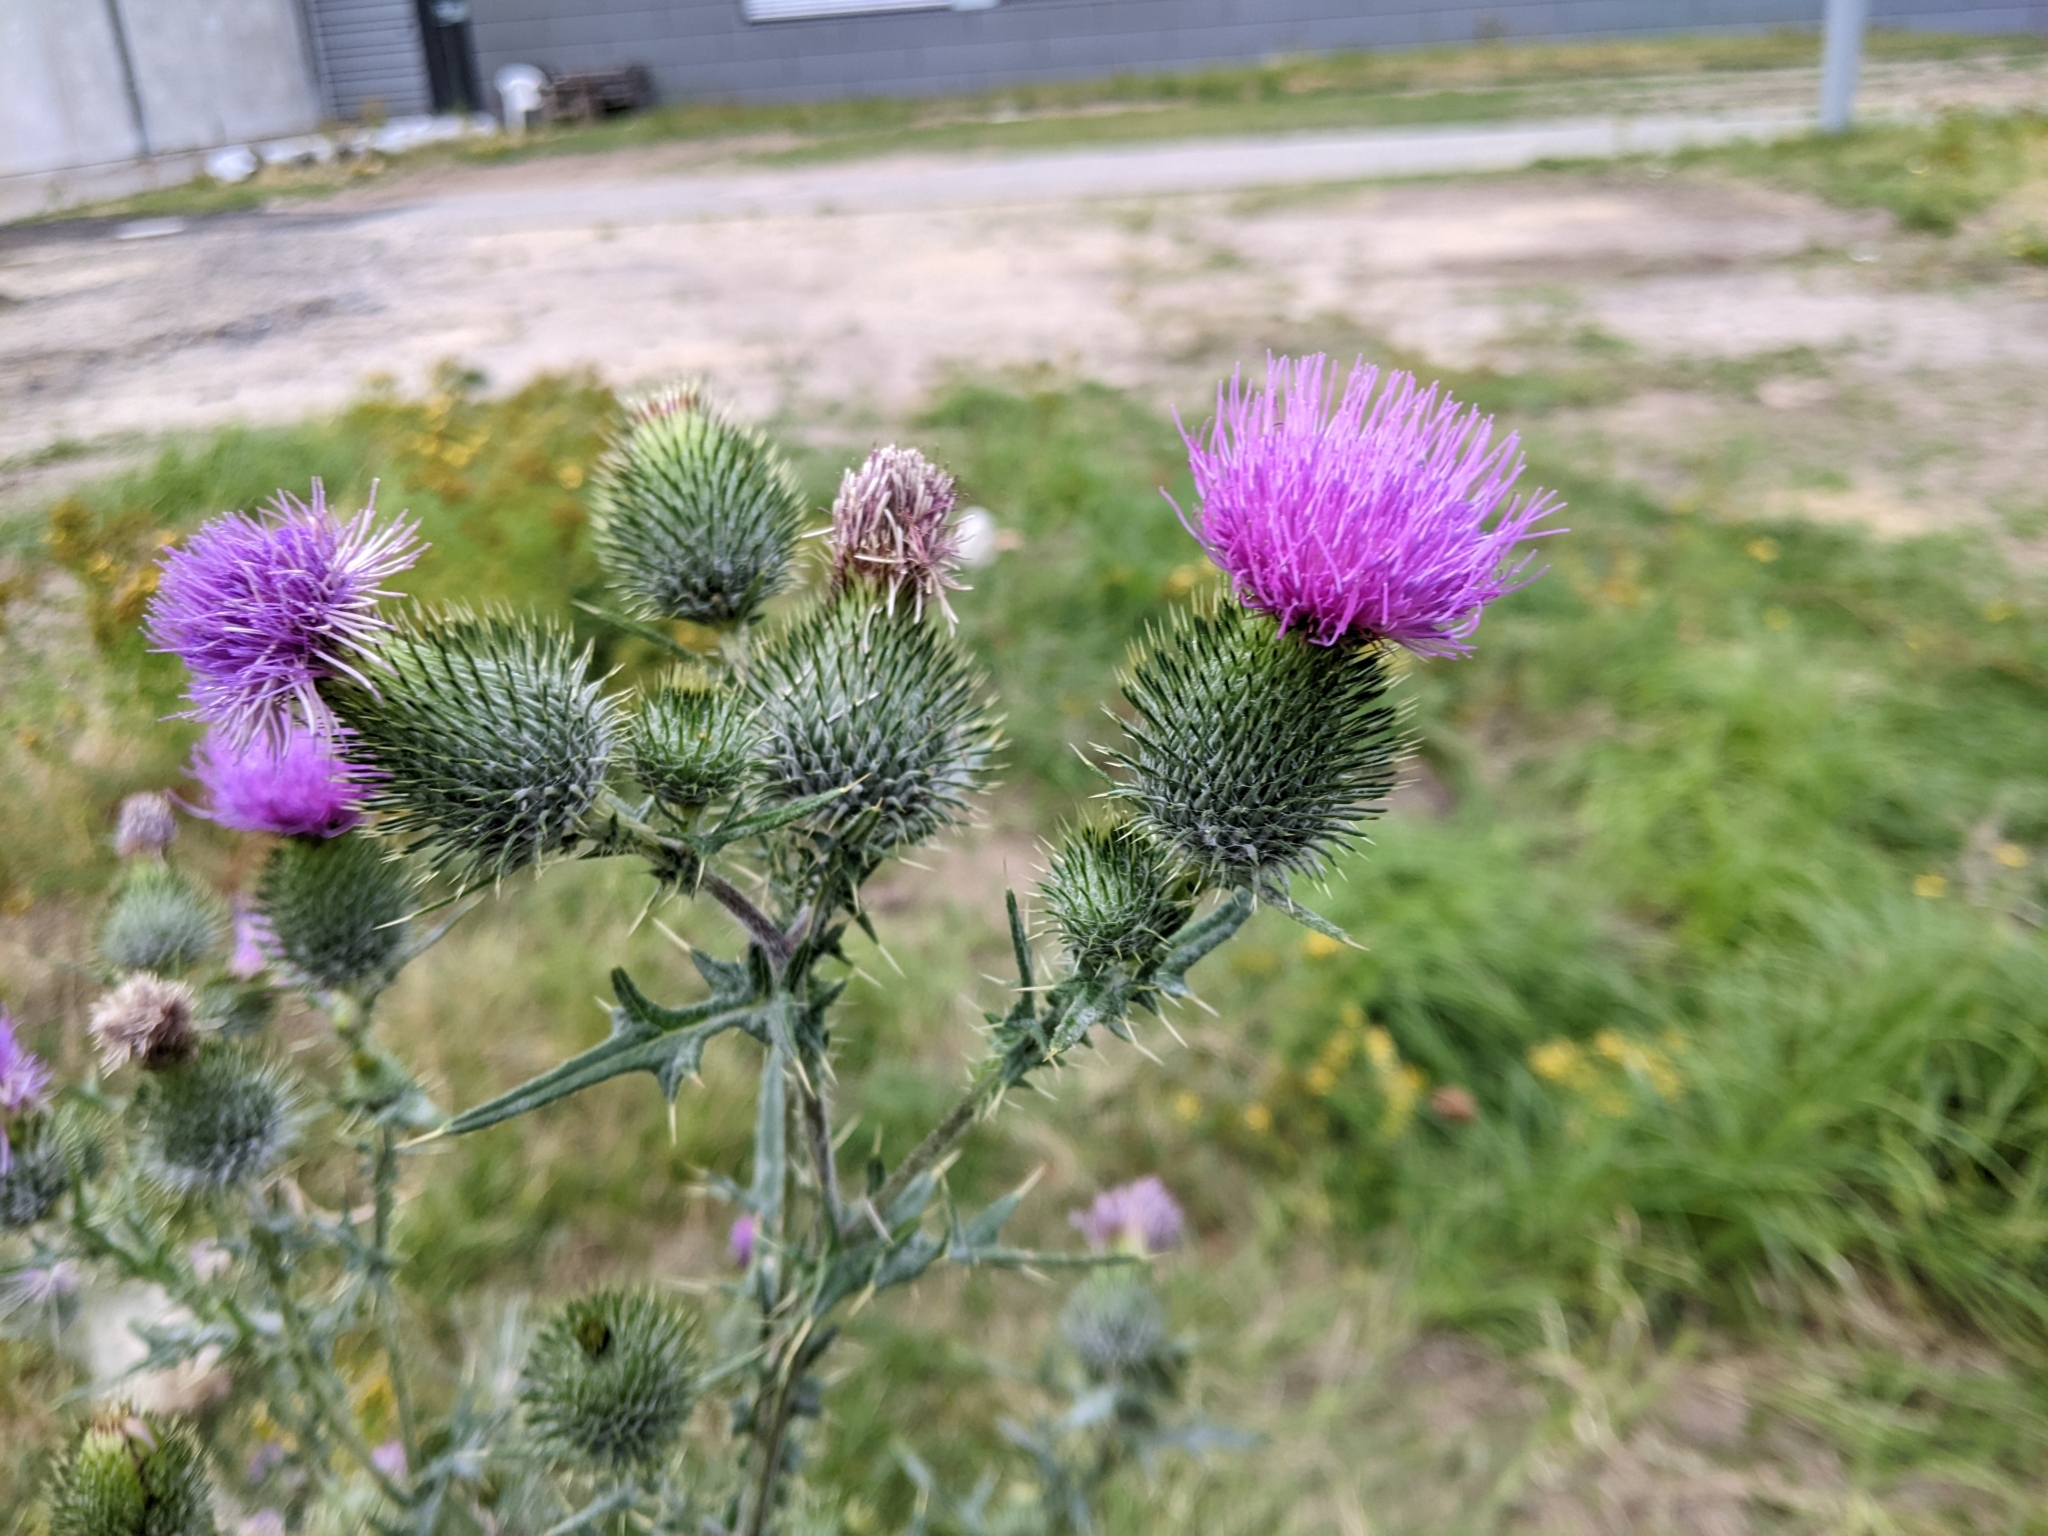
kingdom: Plantae
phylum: Tracheophyta
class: Magnoliopsida
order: Asterales
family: Asteraceae
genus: Cirsium
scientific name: Cirsium vulgare
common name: Bull thistle
